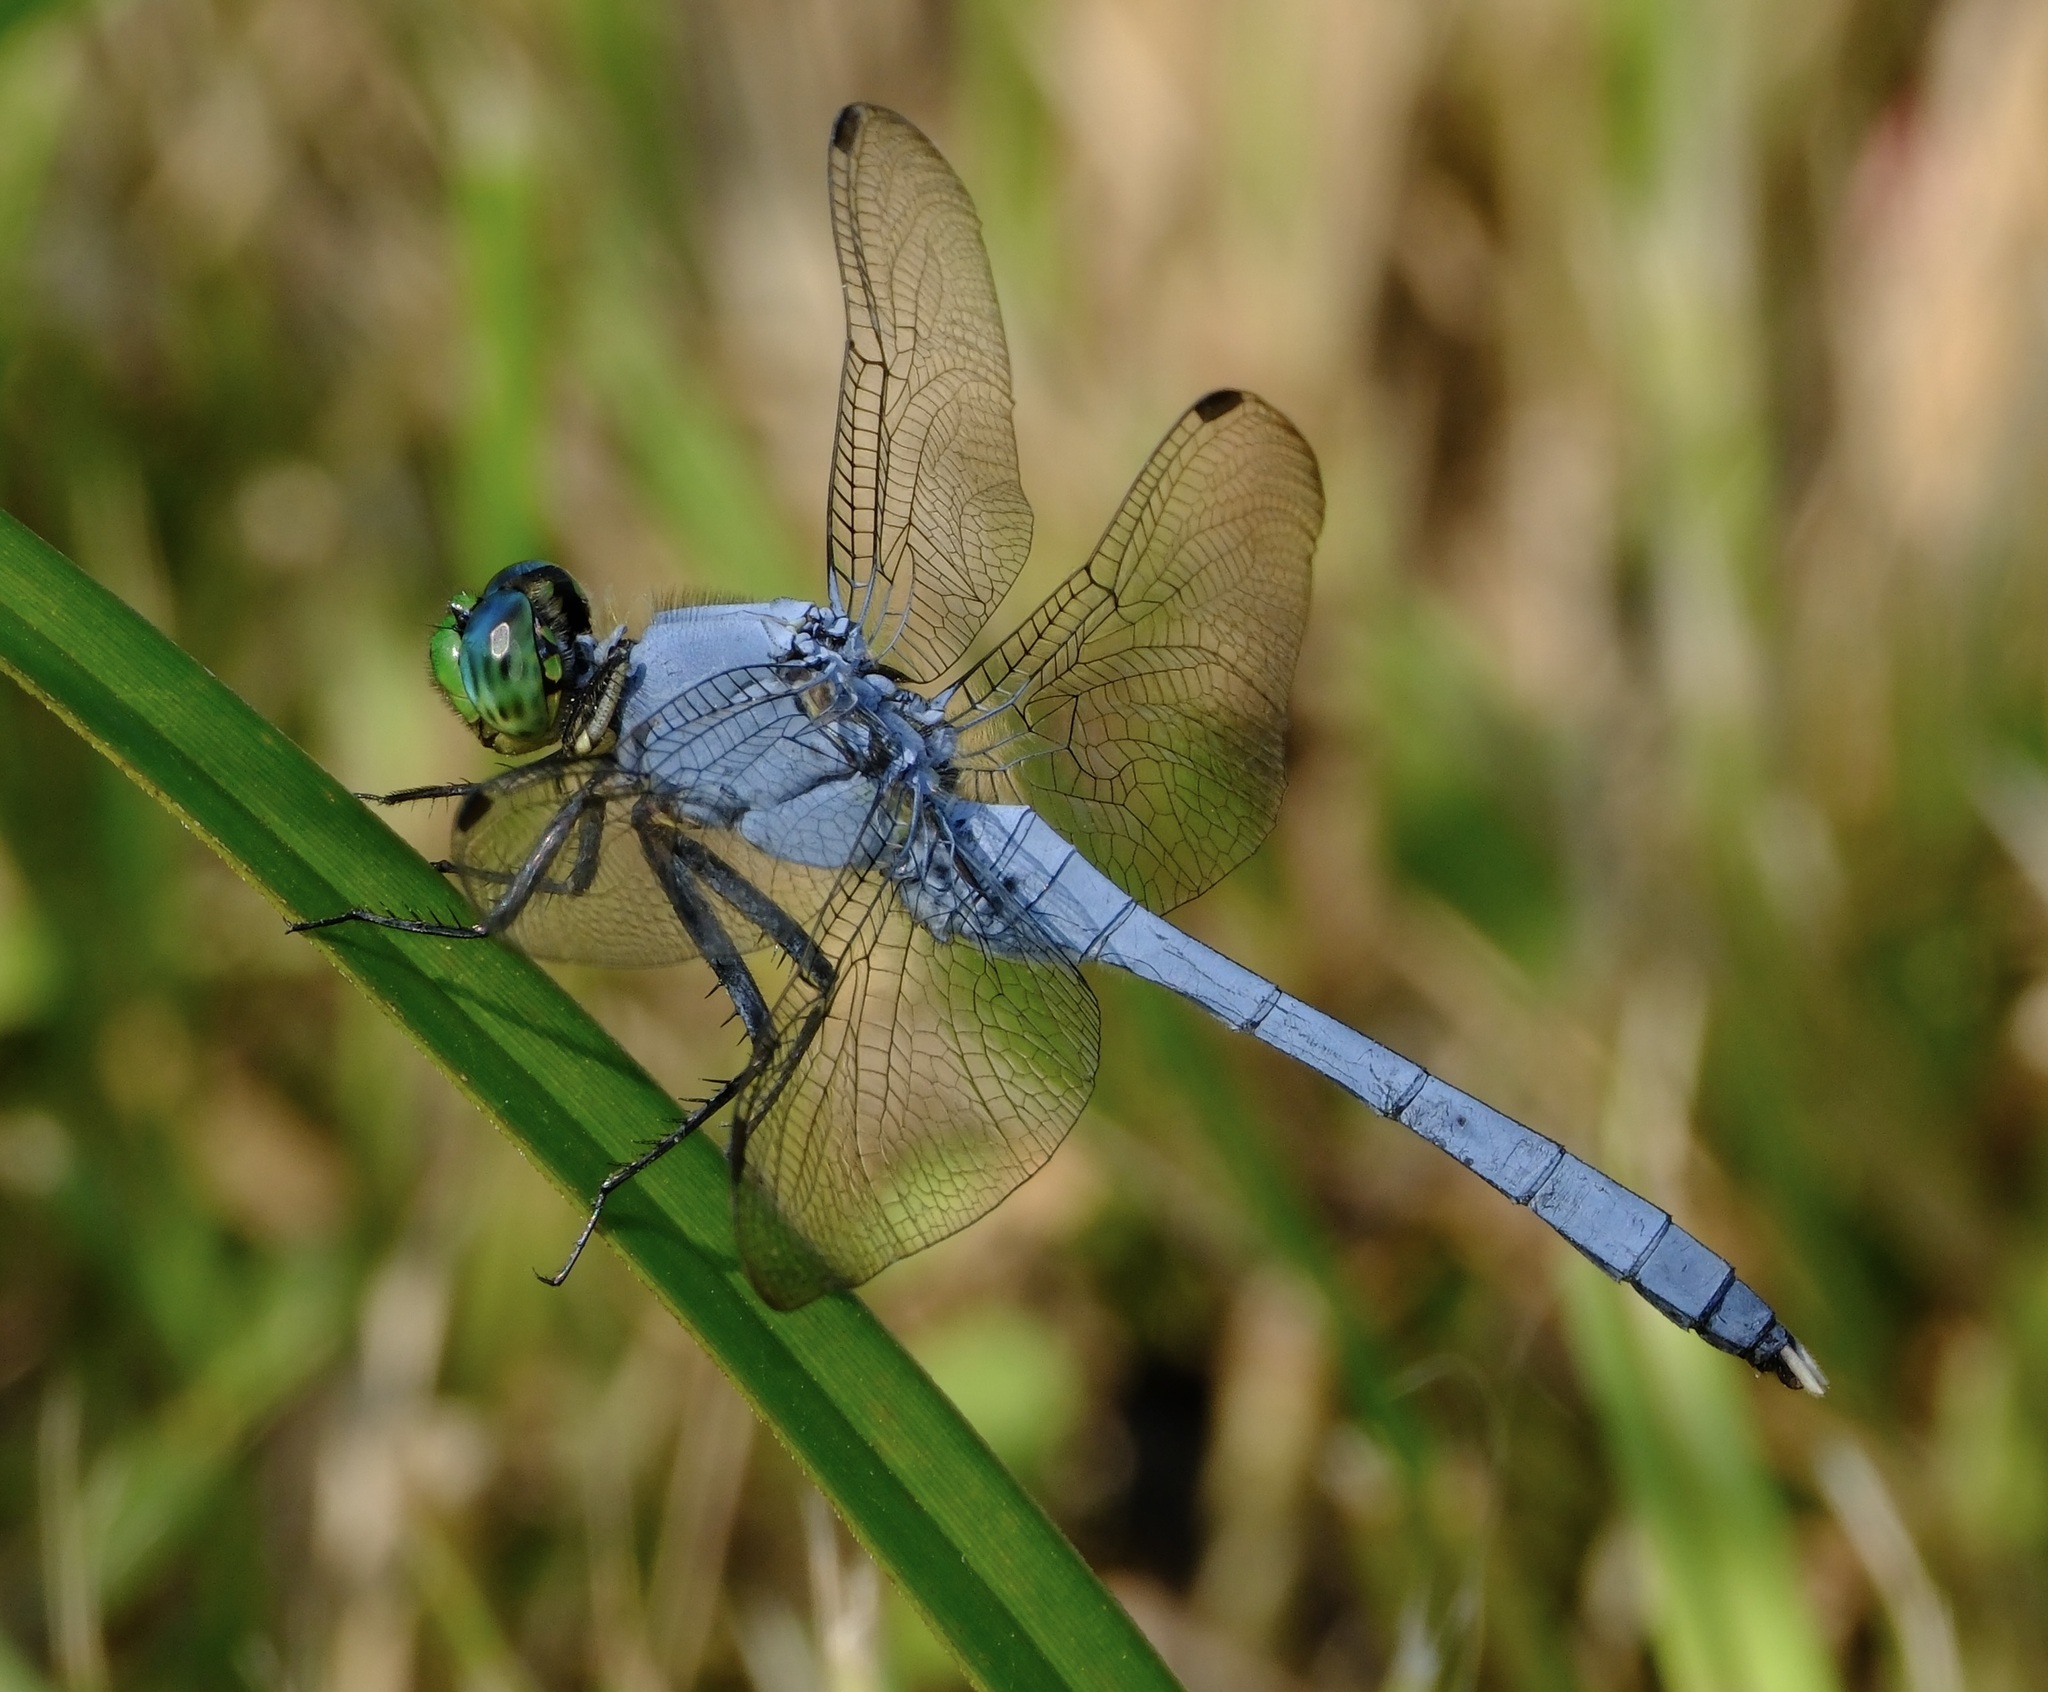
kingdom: Animalia
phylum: Arthropoda
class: Insecta
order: Odonata
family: Libellulidae
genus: Erythemis
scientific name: Erythemis simplicicollis
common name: Eastern pondhawk
